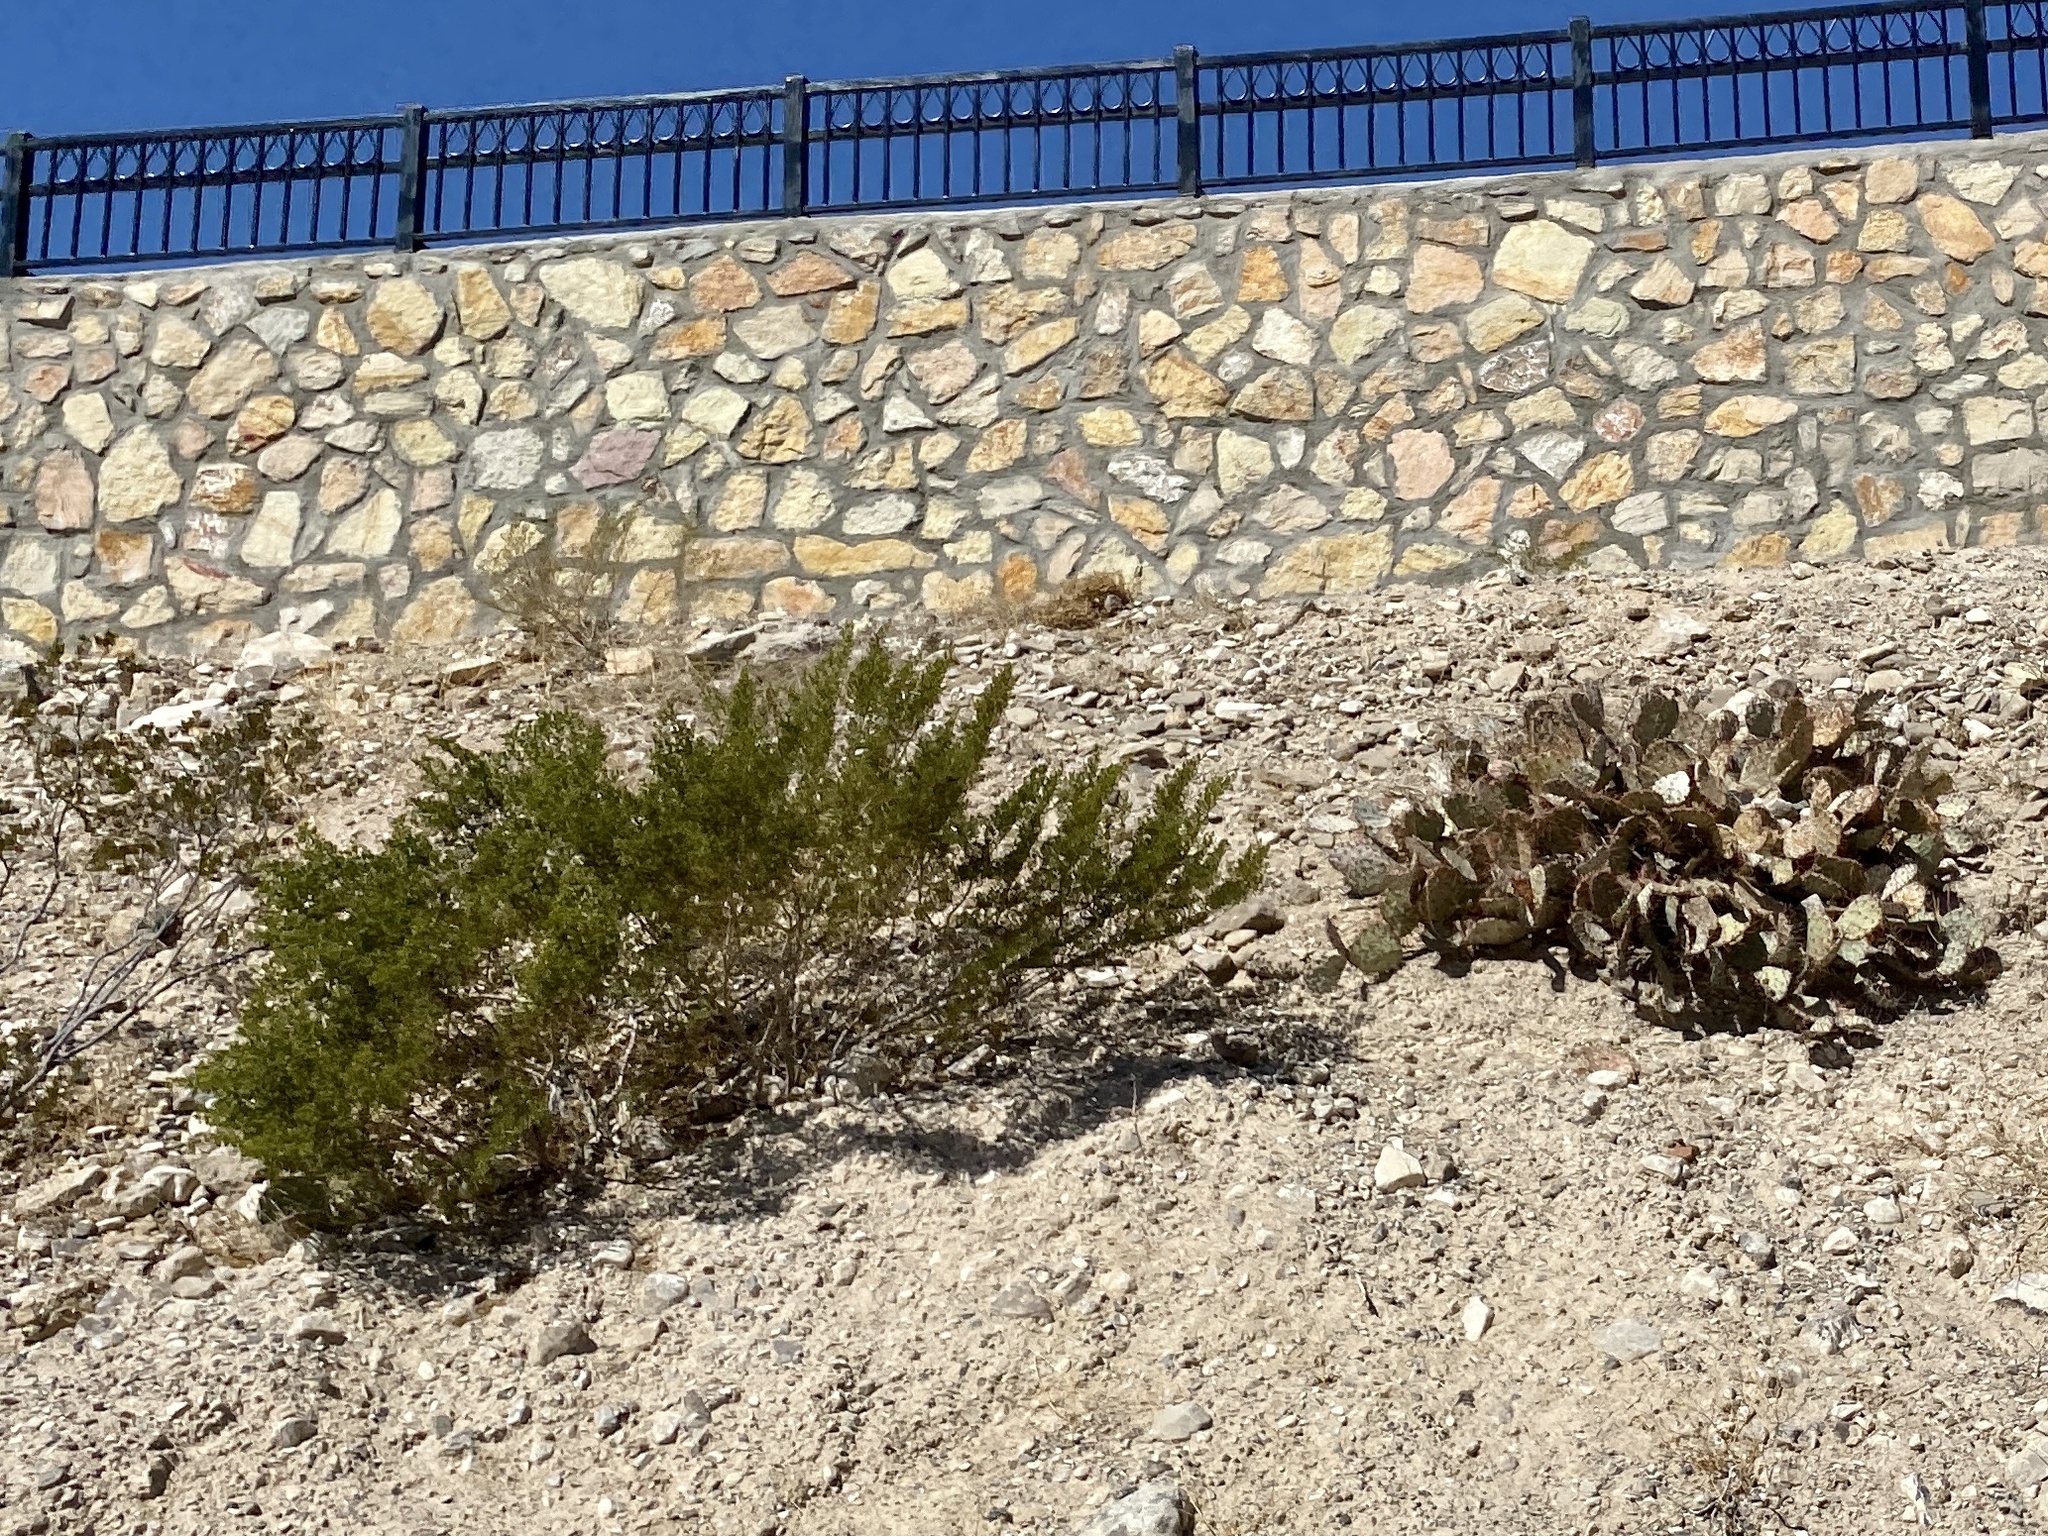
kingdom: Plantae
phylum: Tracheophyta
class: Magnoliopsida
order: Zygophyllales
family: Zygophyllaceae
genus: Larrea
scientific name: Larrea tridentata
